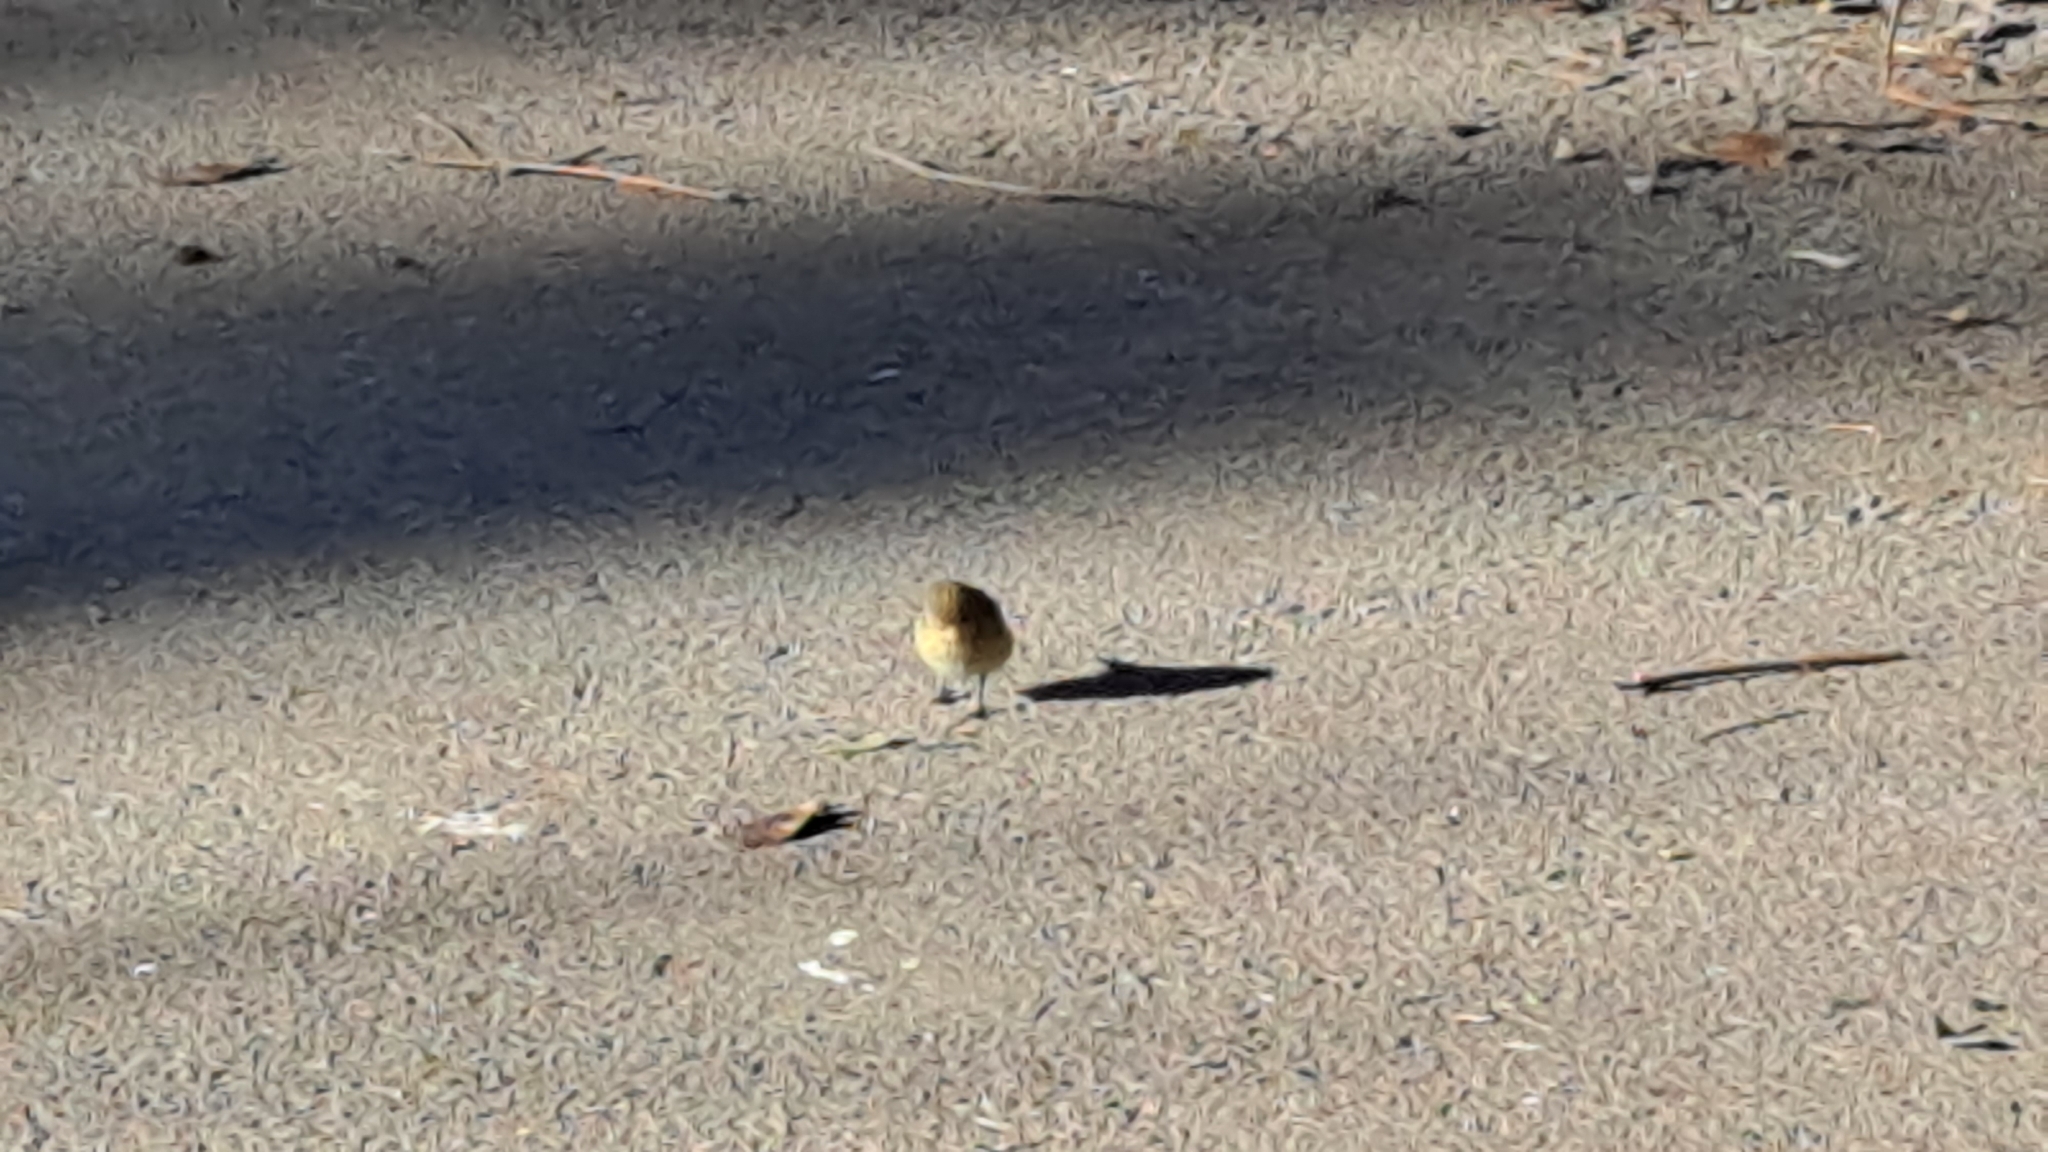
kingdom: Animalia
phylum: Chordata
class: Aves
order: Passeriformes
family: Phylloscopidae
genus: Phylloscopus
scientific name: Phylloscopus collybita
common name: Common chiffchaff
